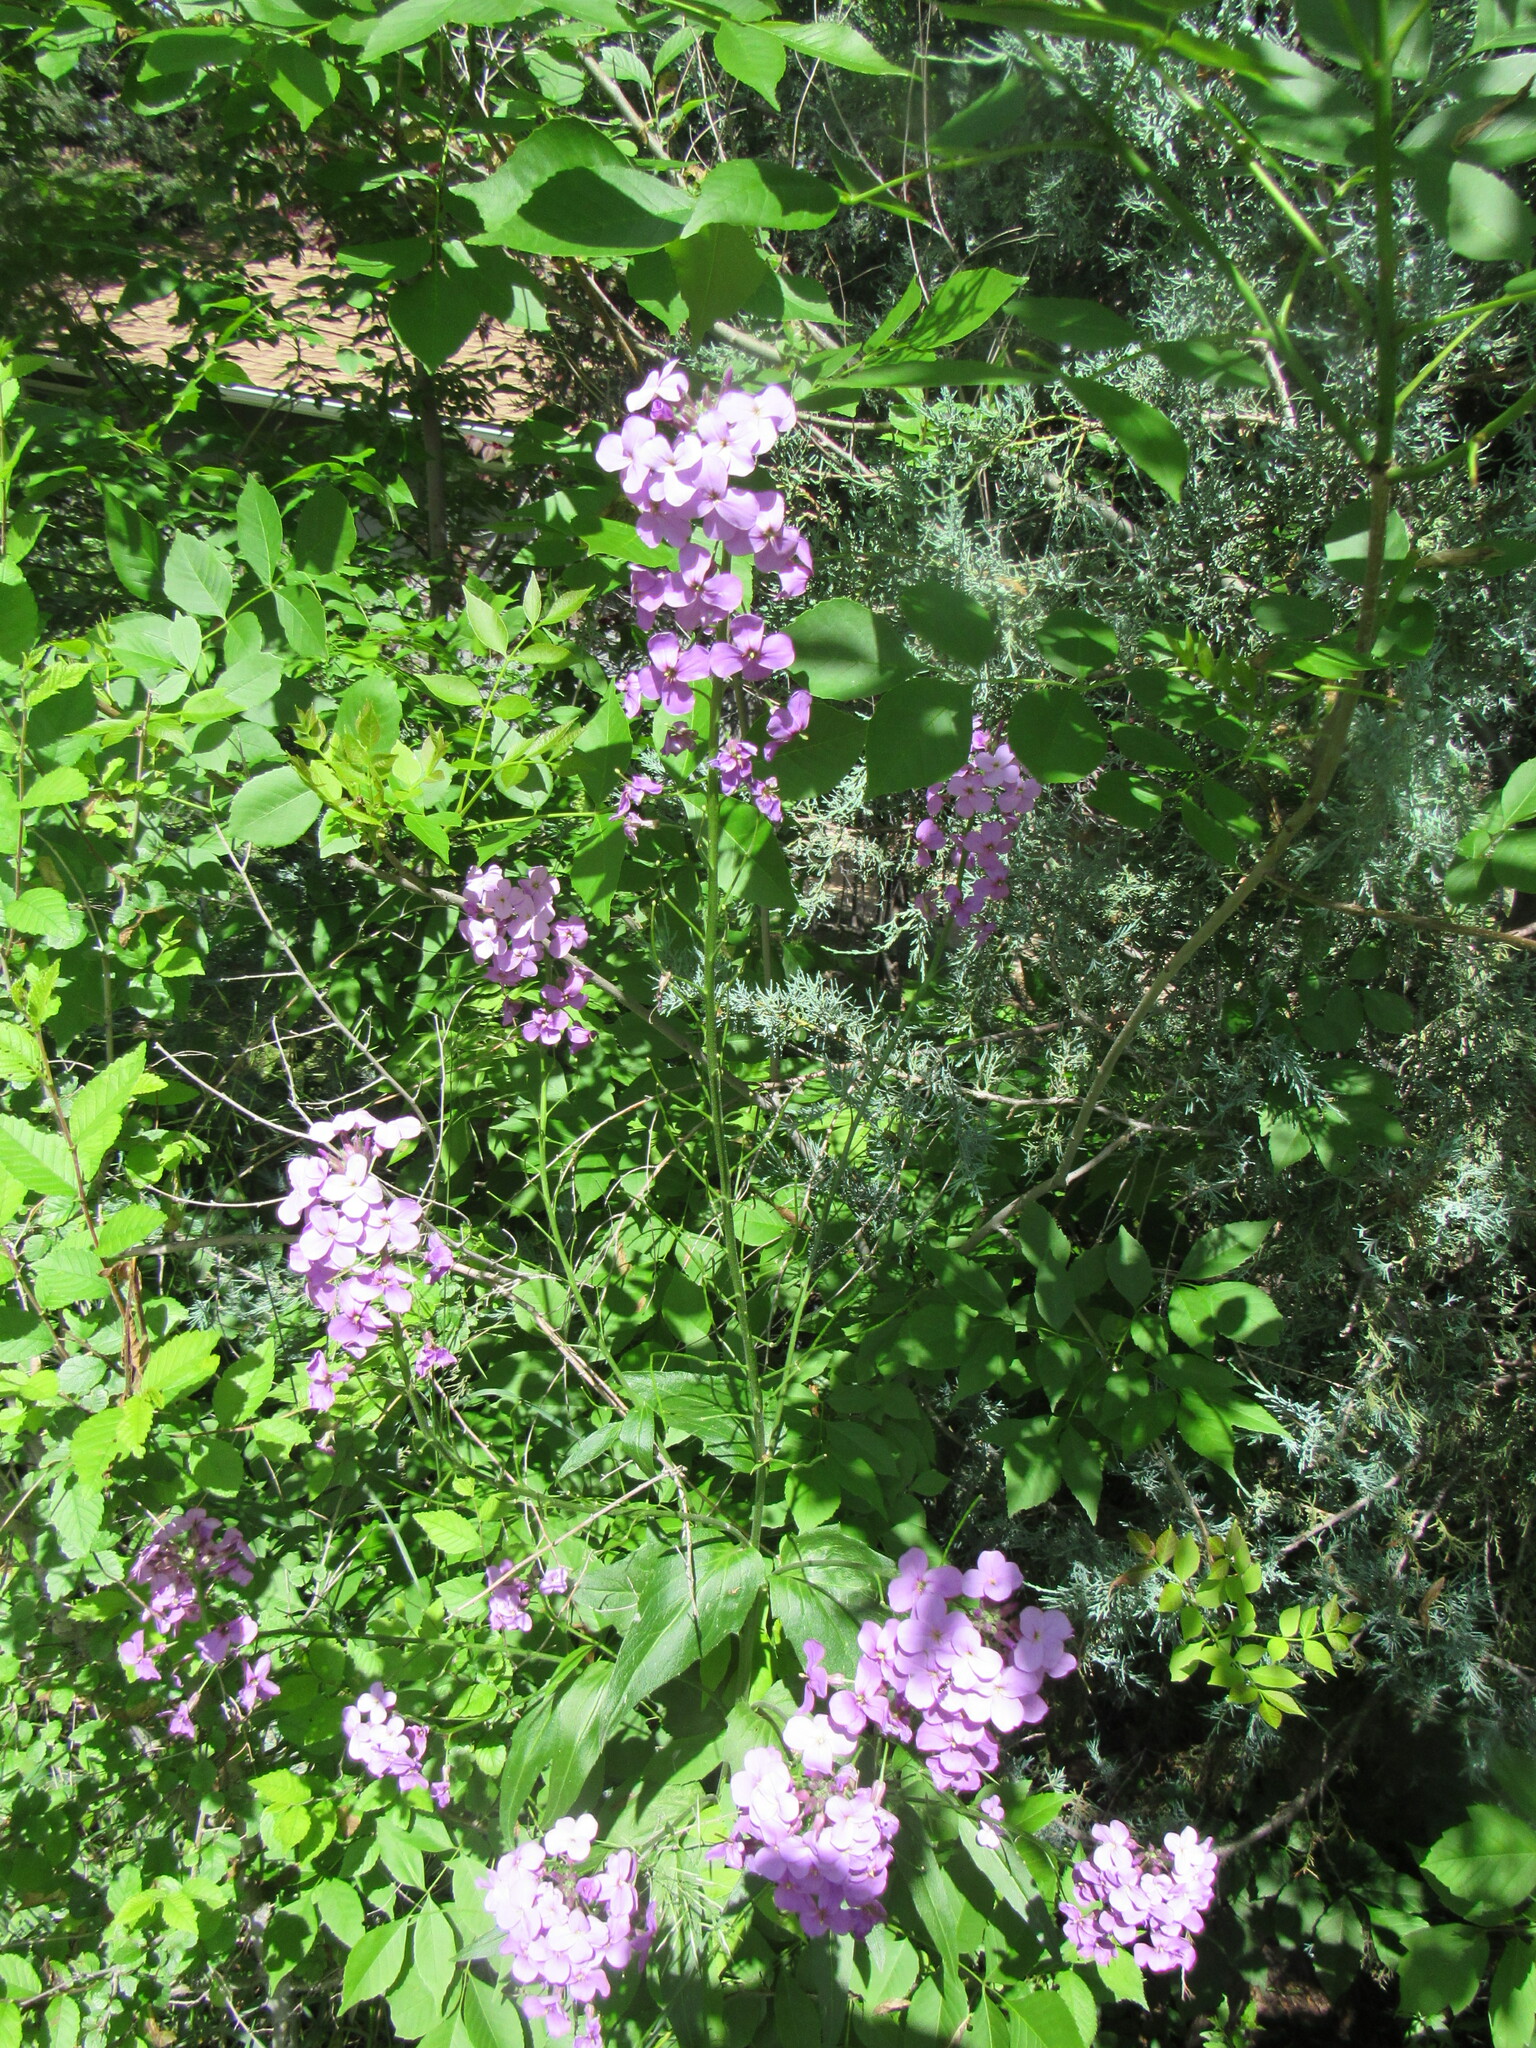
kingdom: Plantae
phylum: Tracheophyta
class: Magnoliopsida
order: Brassicales
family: Brassicaceae
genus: Hesperis
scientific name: Hesperis matronalis
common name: Dame's-violet
